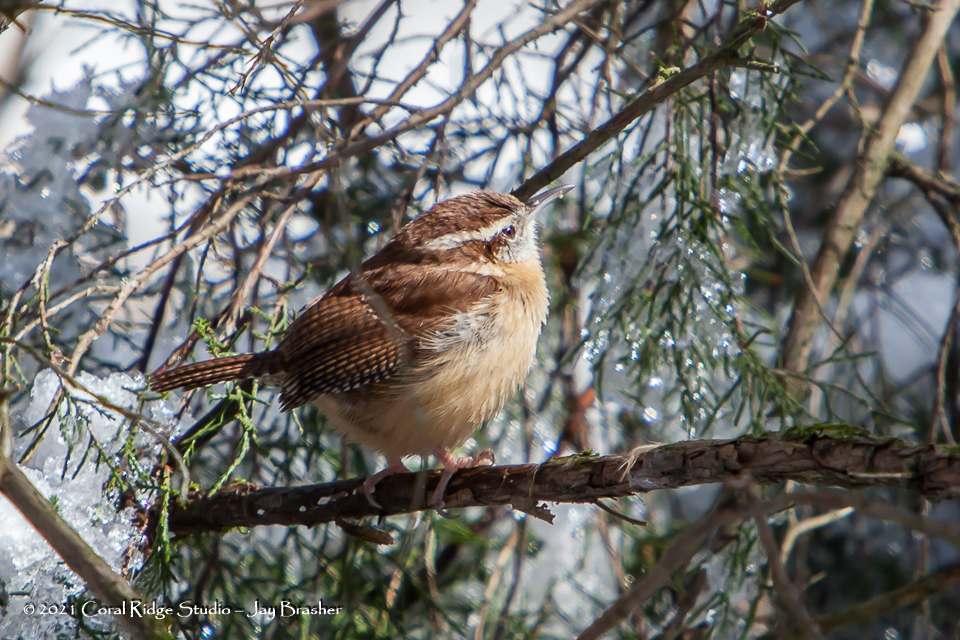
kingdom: Animalia
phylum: Chordata
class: Aves
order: Passeriformes
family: Troglodytidae
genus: Thryothorus
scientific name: Thryothorus ludovicianus
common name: Carolina wren
